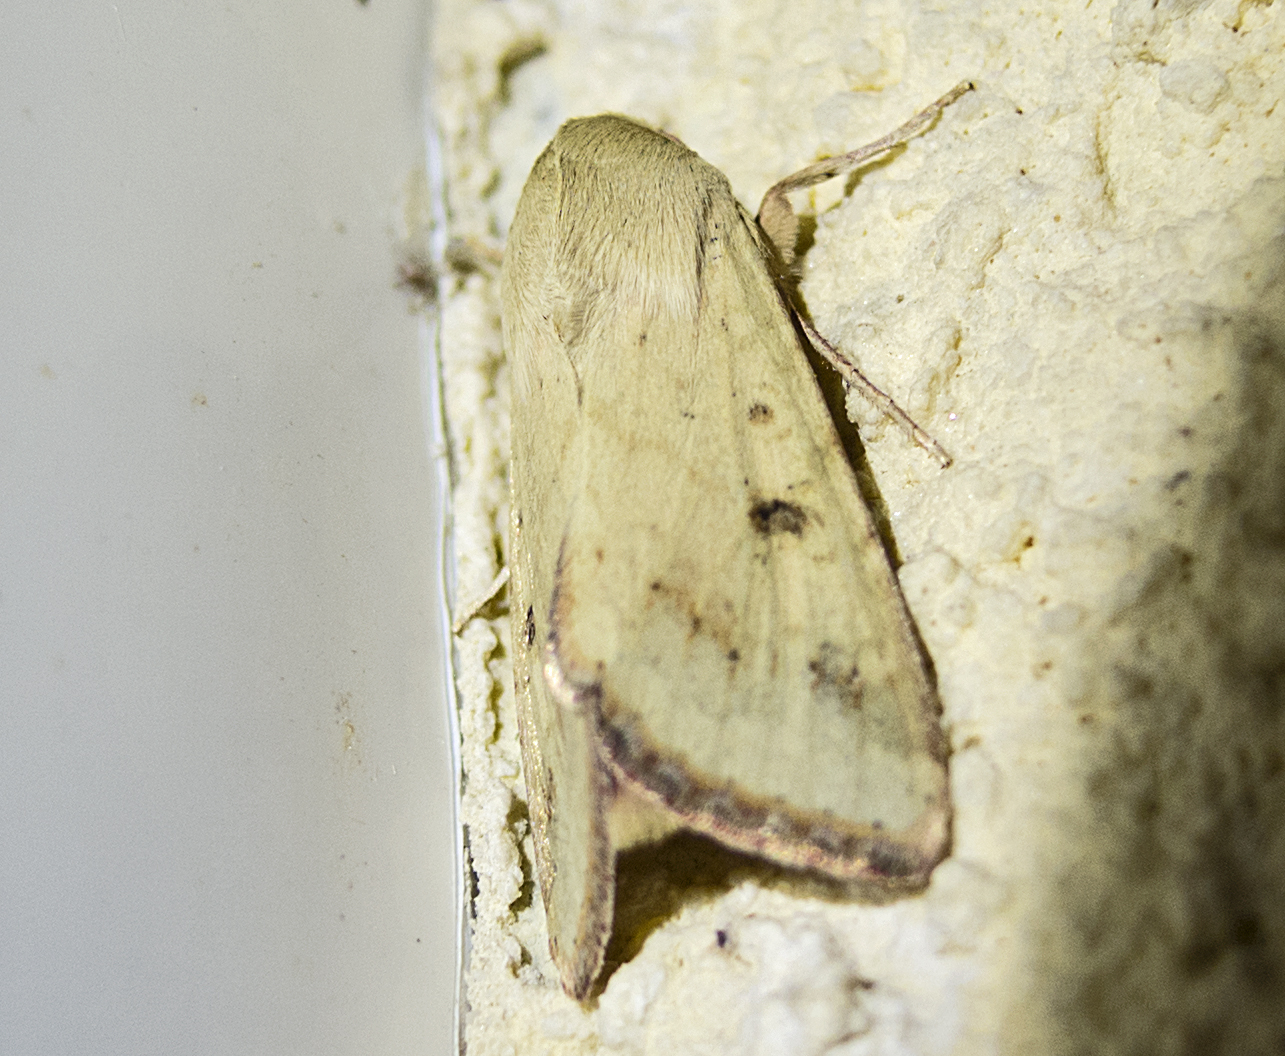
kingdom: Animalia
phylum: Arthropoda
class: Insecta
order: Lepidoptera
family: Noctuidae
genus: Helicoverpa
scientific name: Helicoverpa armigera
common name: Cotton bollworm
